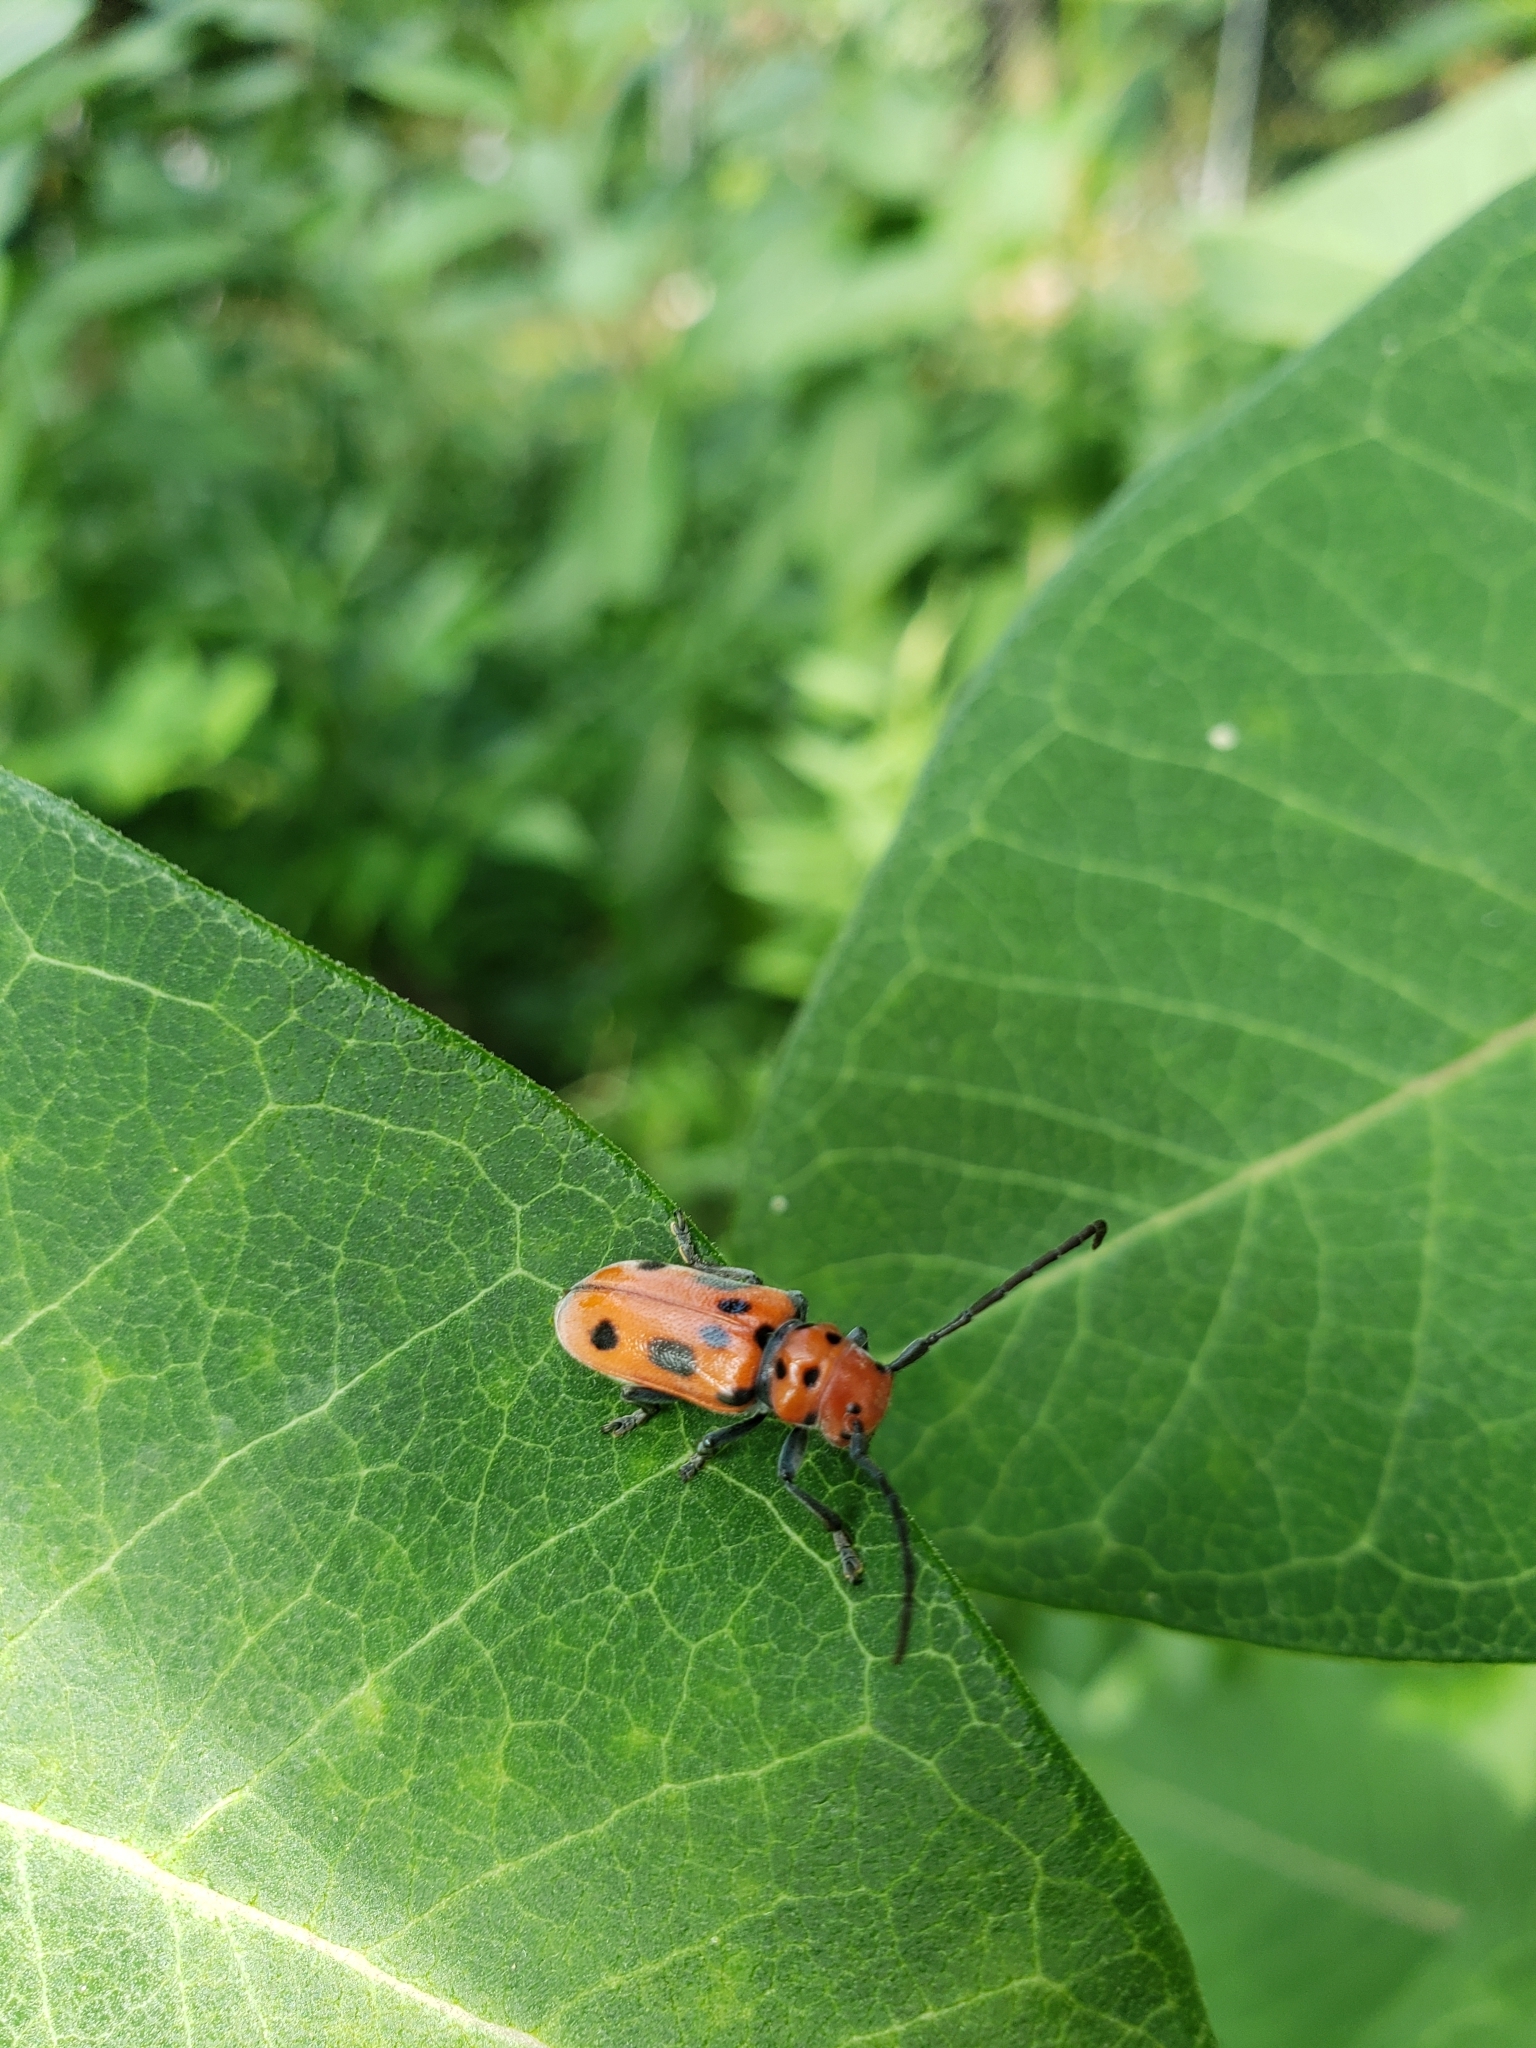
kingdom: Animalia
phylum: Arthropoda
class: Insecta
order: Coleoptera
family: Cerambycidae
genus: Tetraopes
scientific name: Tetraopes tetrophthalmus
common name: Red milkweed beetle
